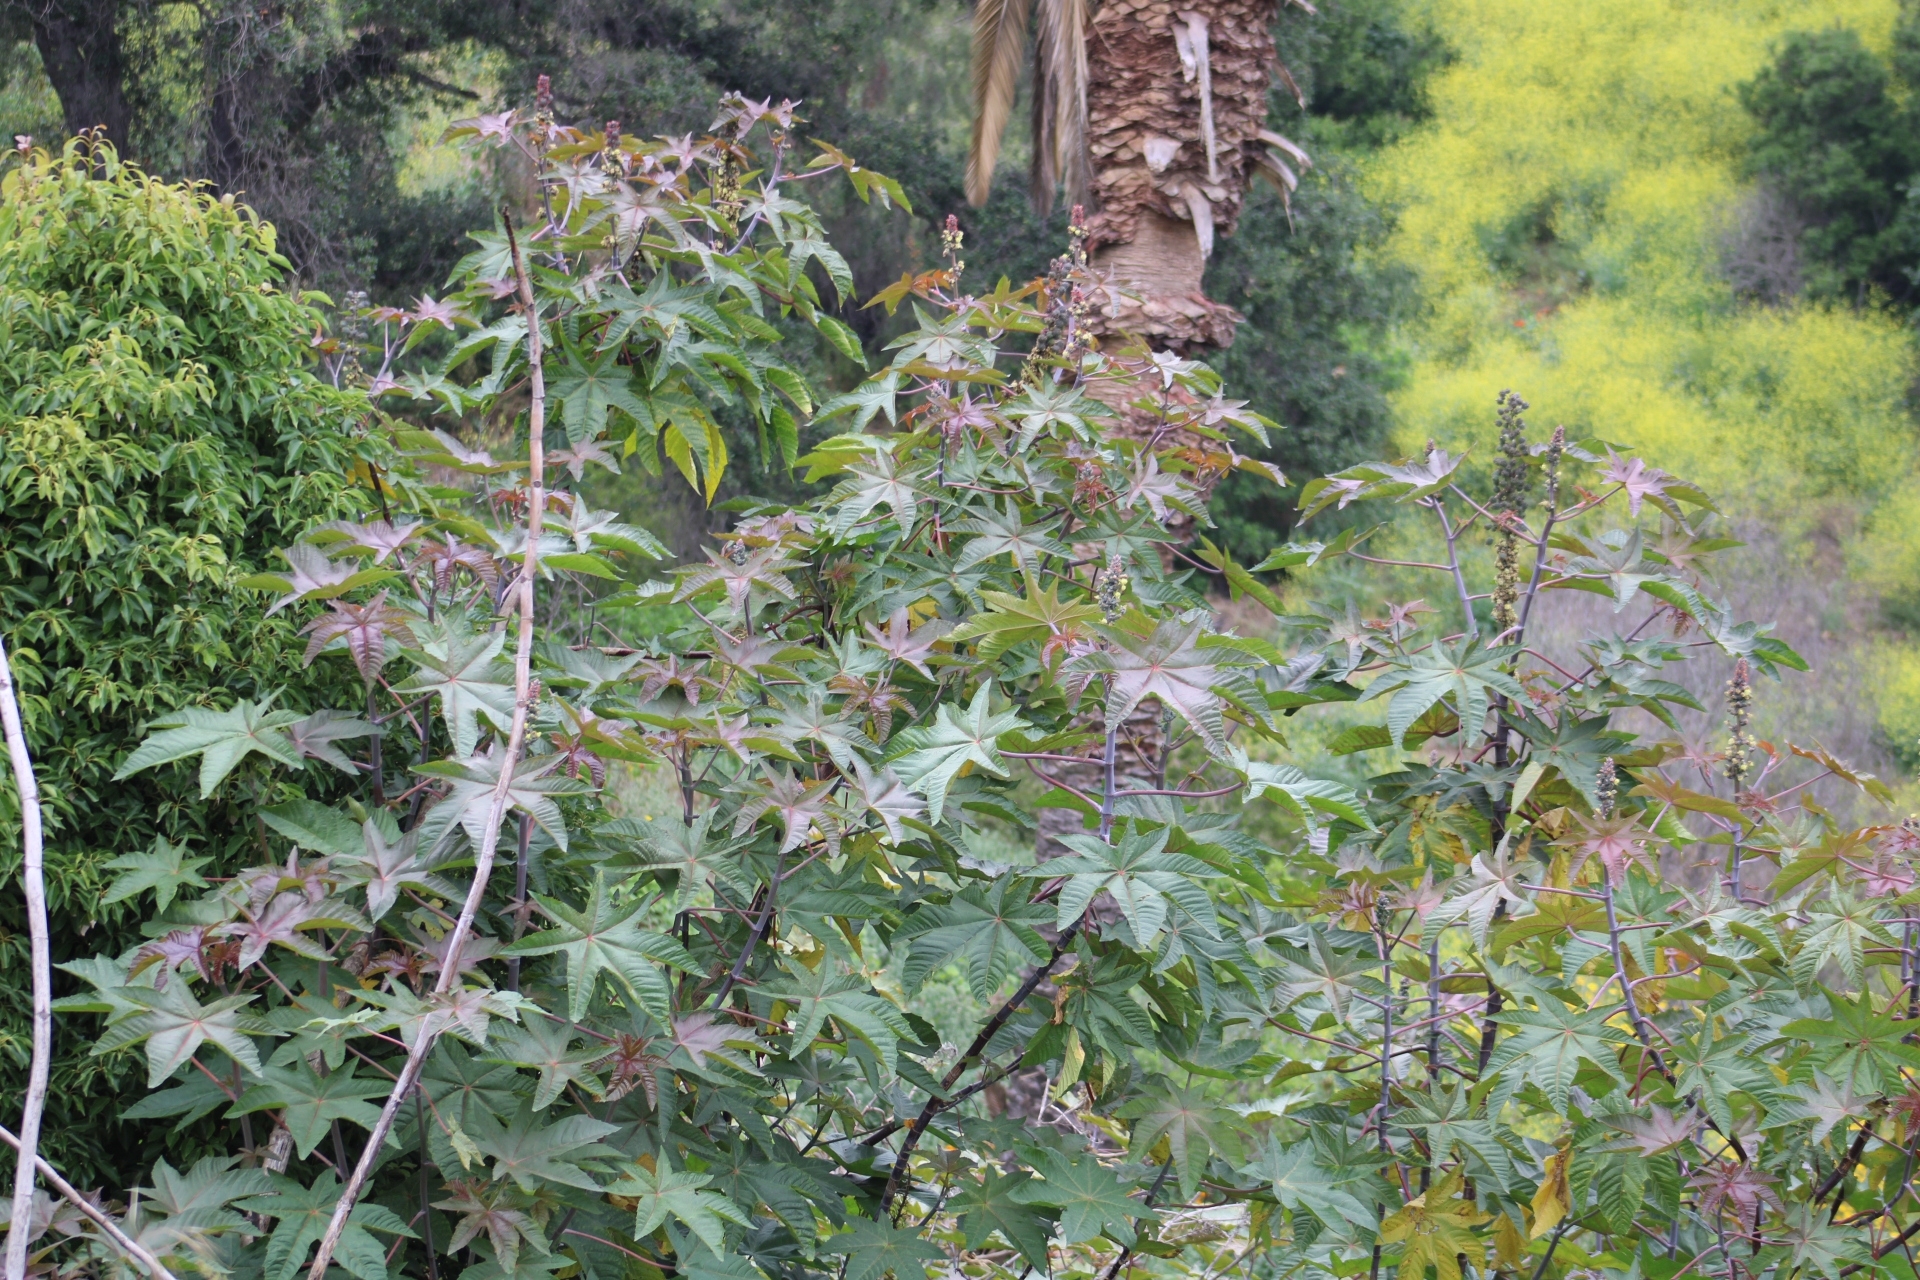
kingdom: Plantae
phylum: Tracheophyta
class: Magnoliopsida
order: Malpighiales
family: Euphorbiaceae
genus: Ricinus
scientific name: Ricinus communis
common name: Castor-oil-plant
